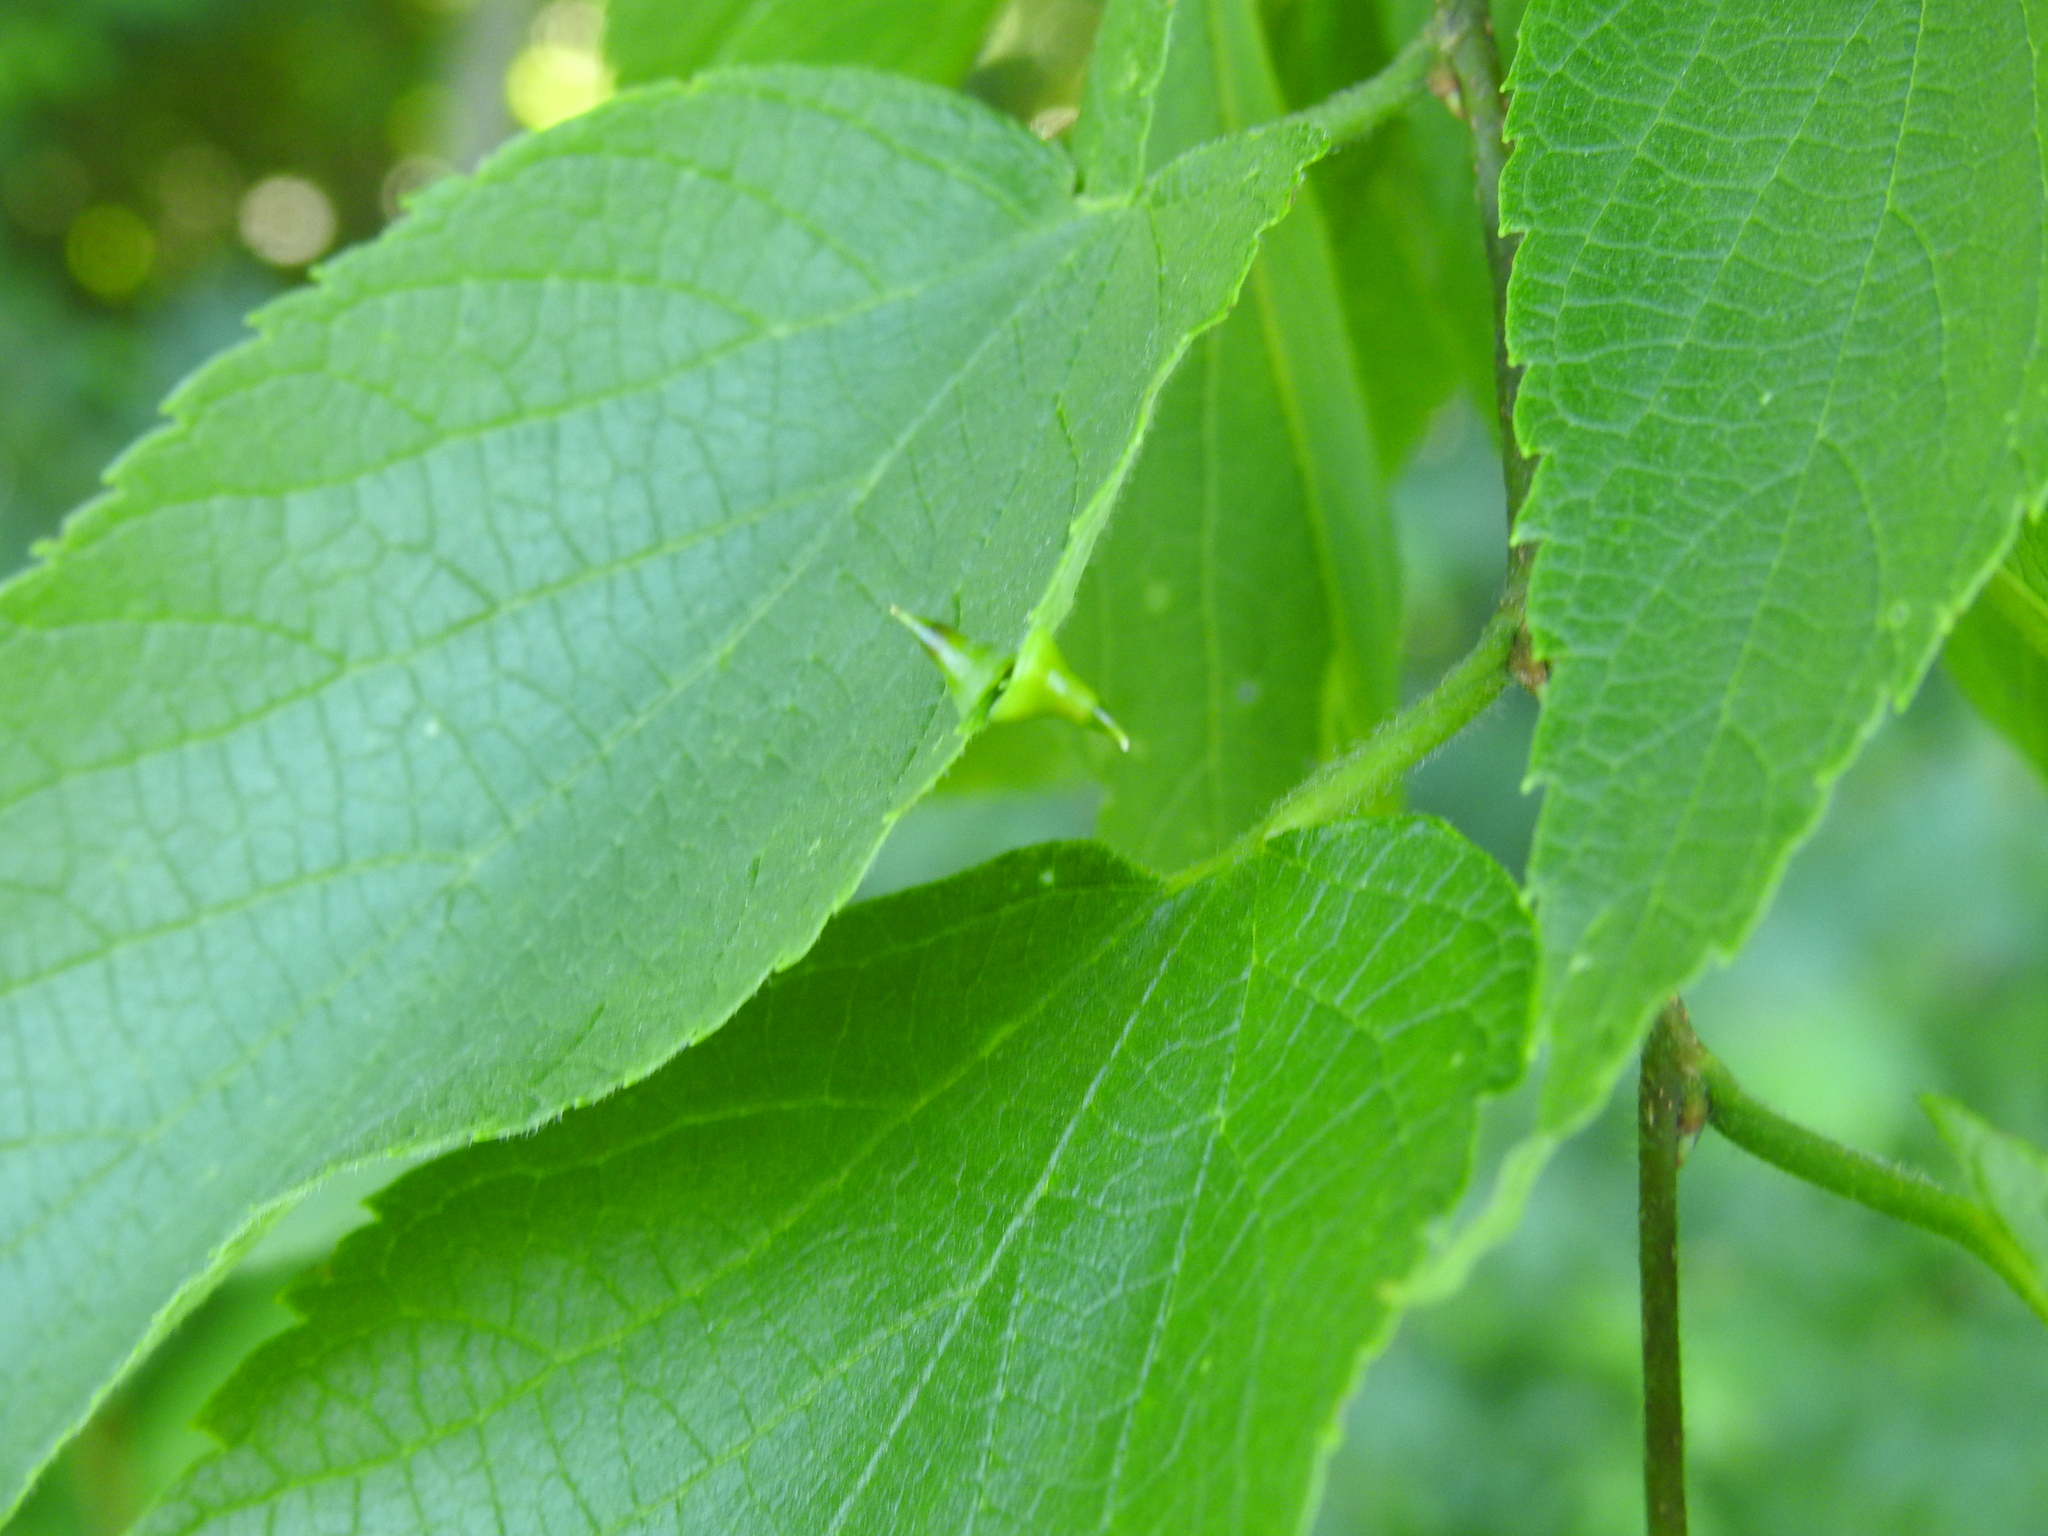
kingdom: Animalia
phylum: Arthropoda
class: Insecta
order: Diptera
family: Cecidomyiidae
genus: Celticecis
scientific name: Celticecis spiniformis
